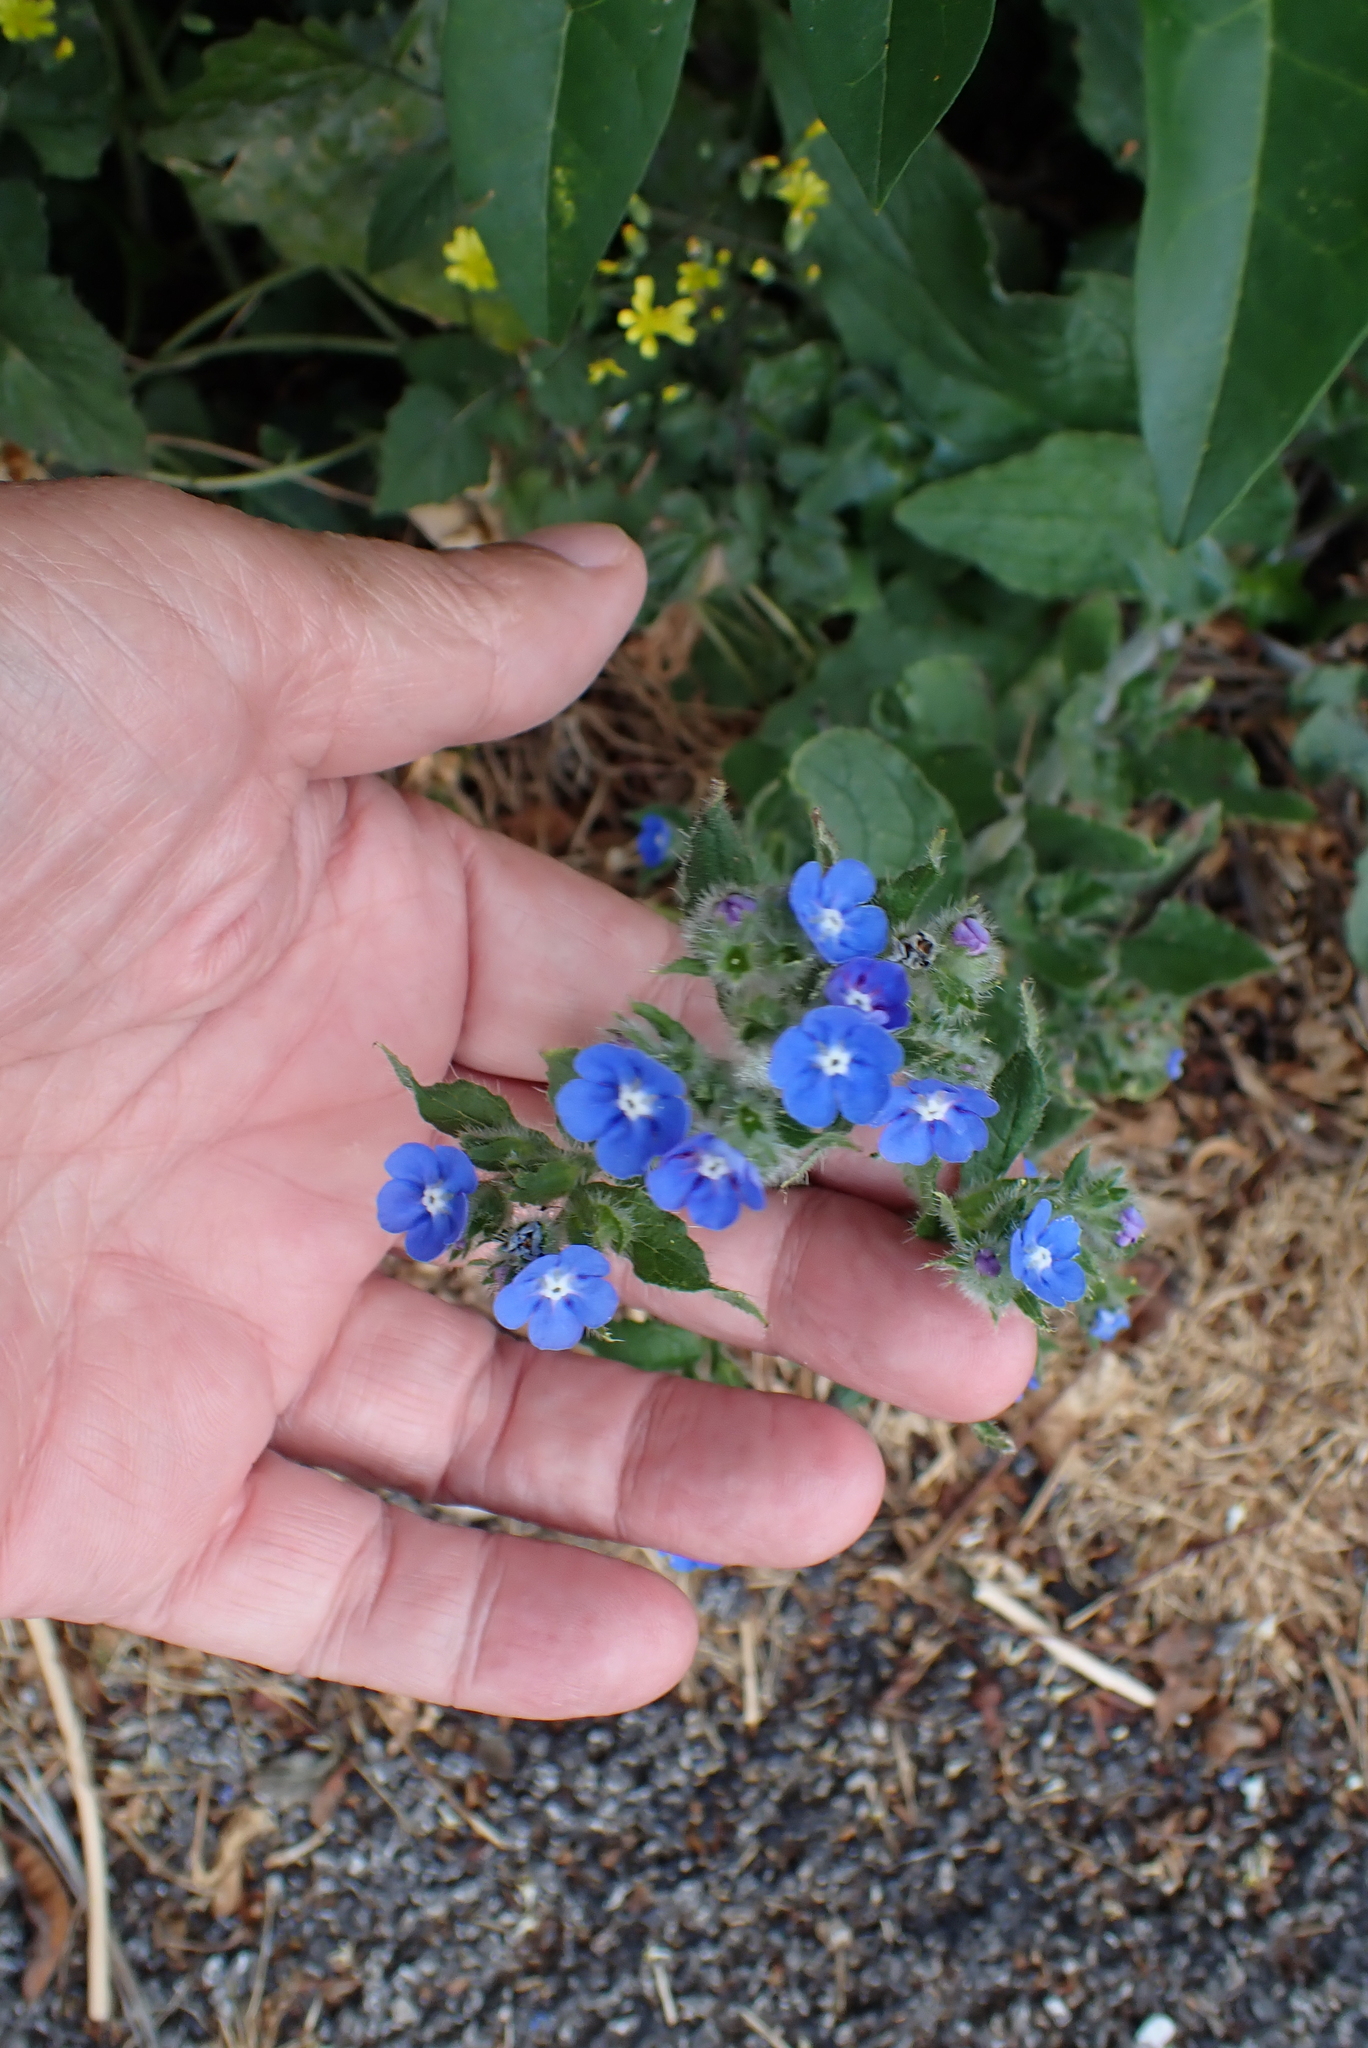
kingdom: Plantae
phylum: Tracheophyta
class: Magnoliopsida
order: Boraginales
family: Boraginaceae
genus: Pentaglottis
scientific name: Pentaglottis sempervirens
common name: Green alkanet
